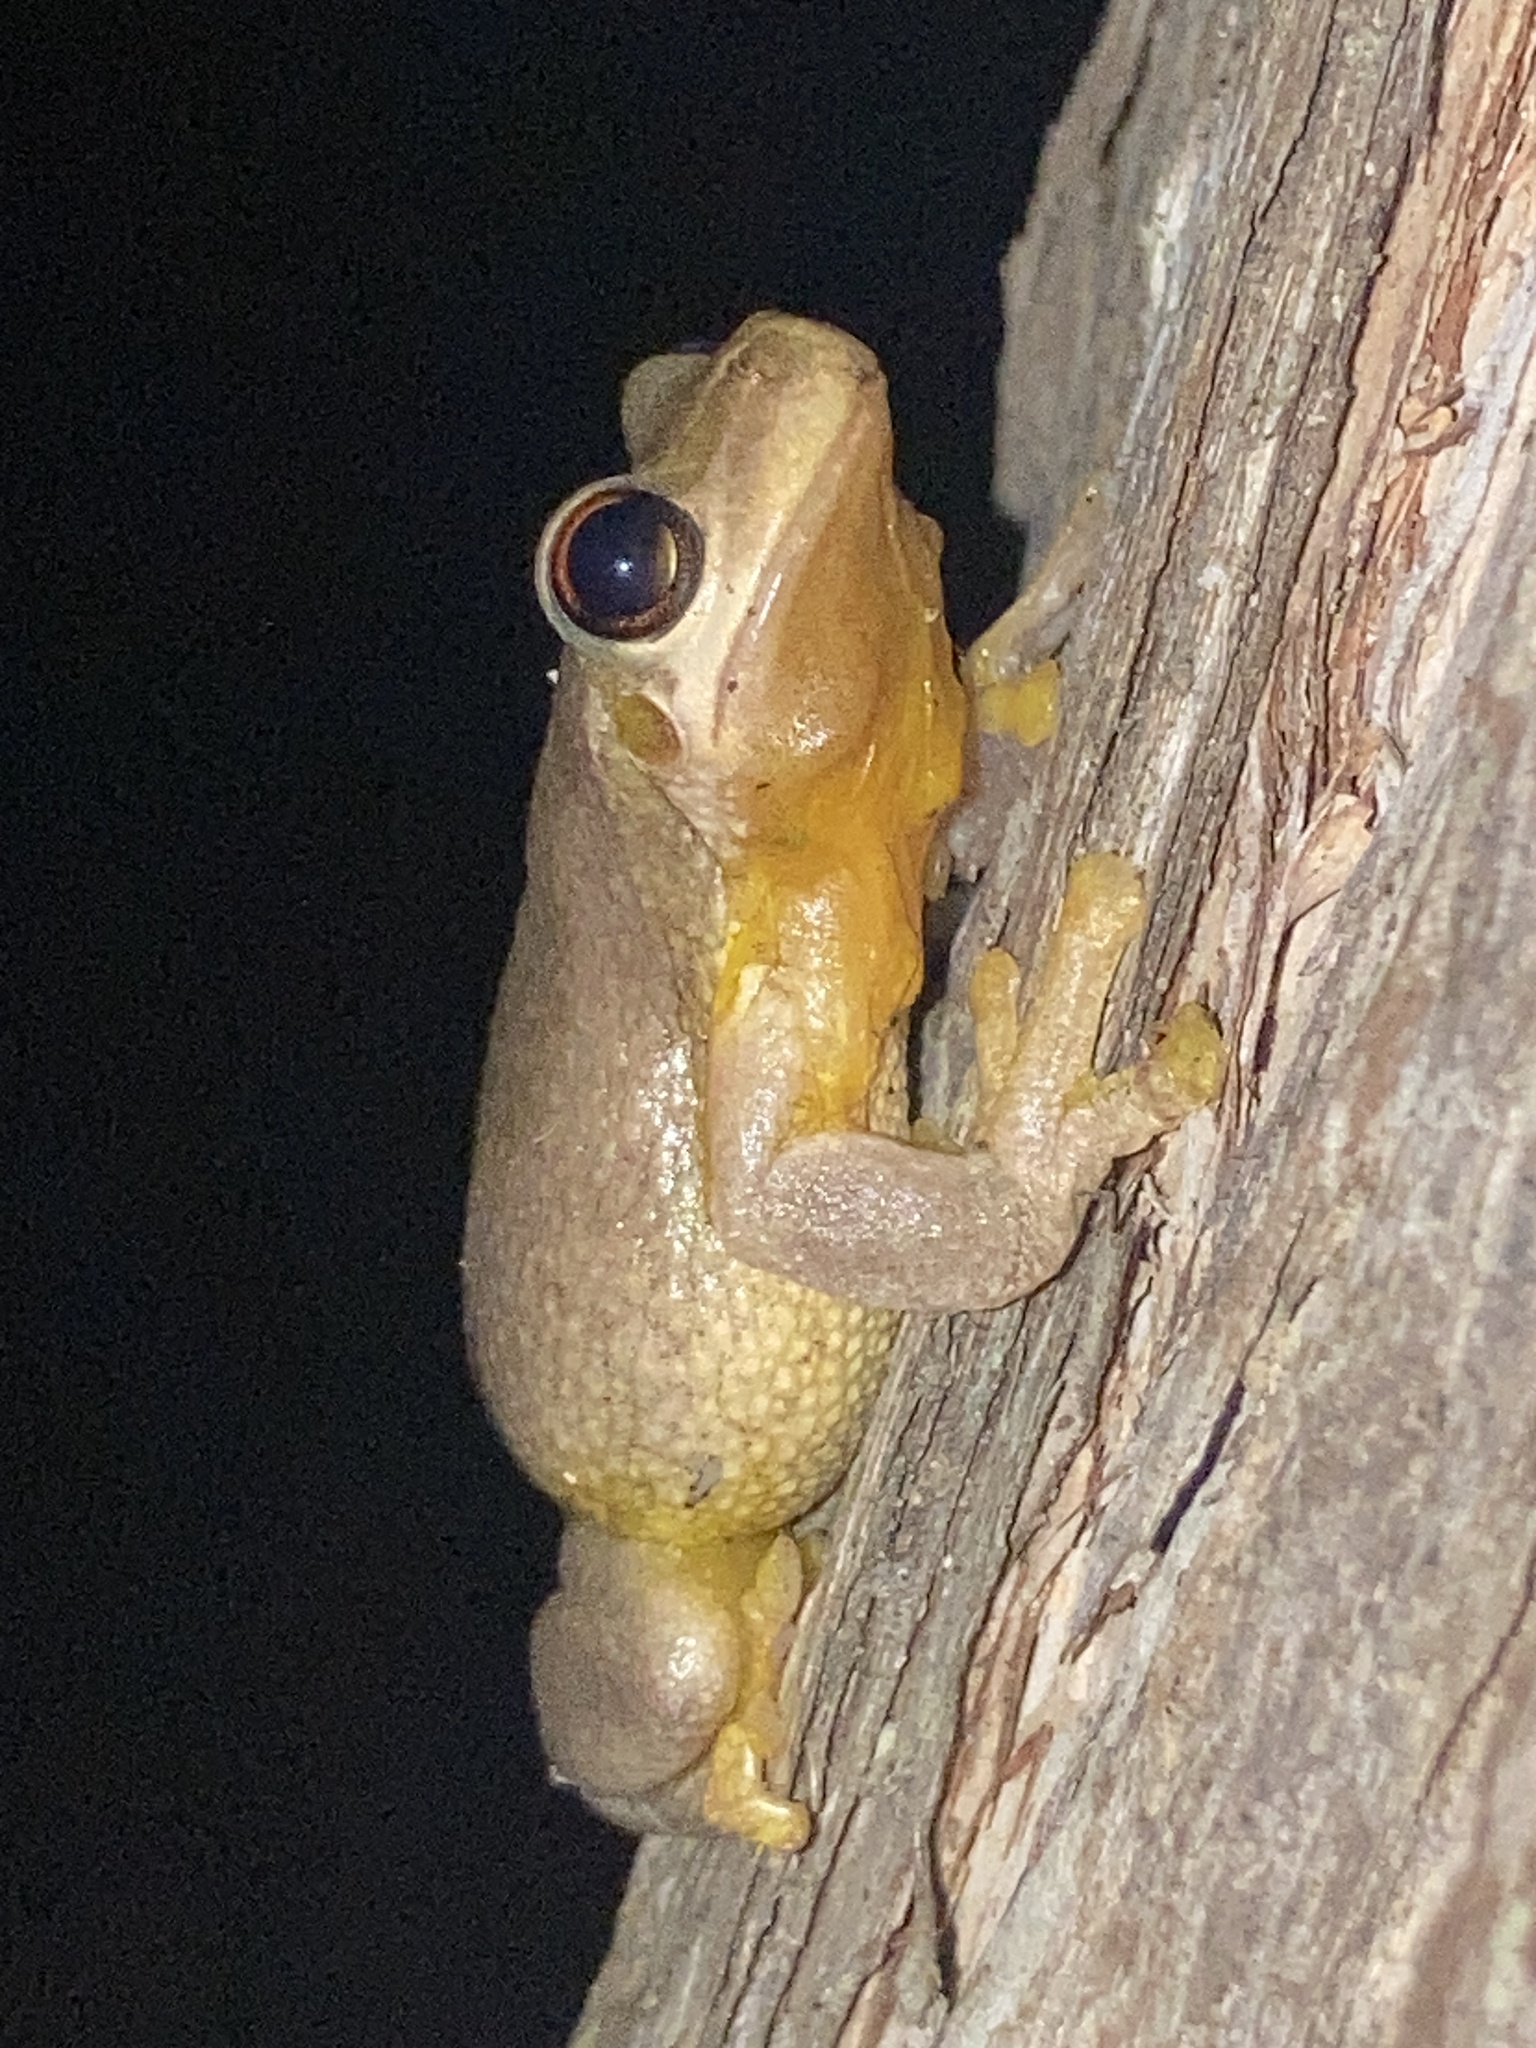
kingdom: Animalia
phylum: Chordata
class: Amphibia
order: Anura
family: Pelodryadidae
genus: Litoria
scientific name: Litoria quiritatus
